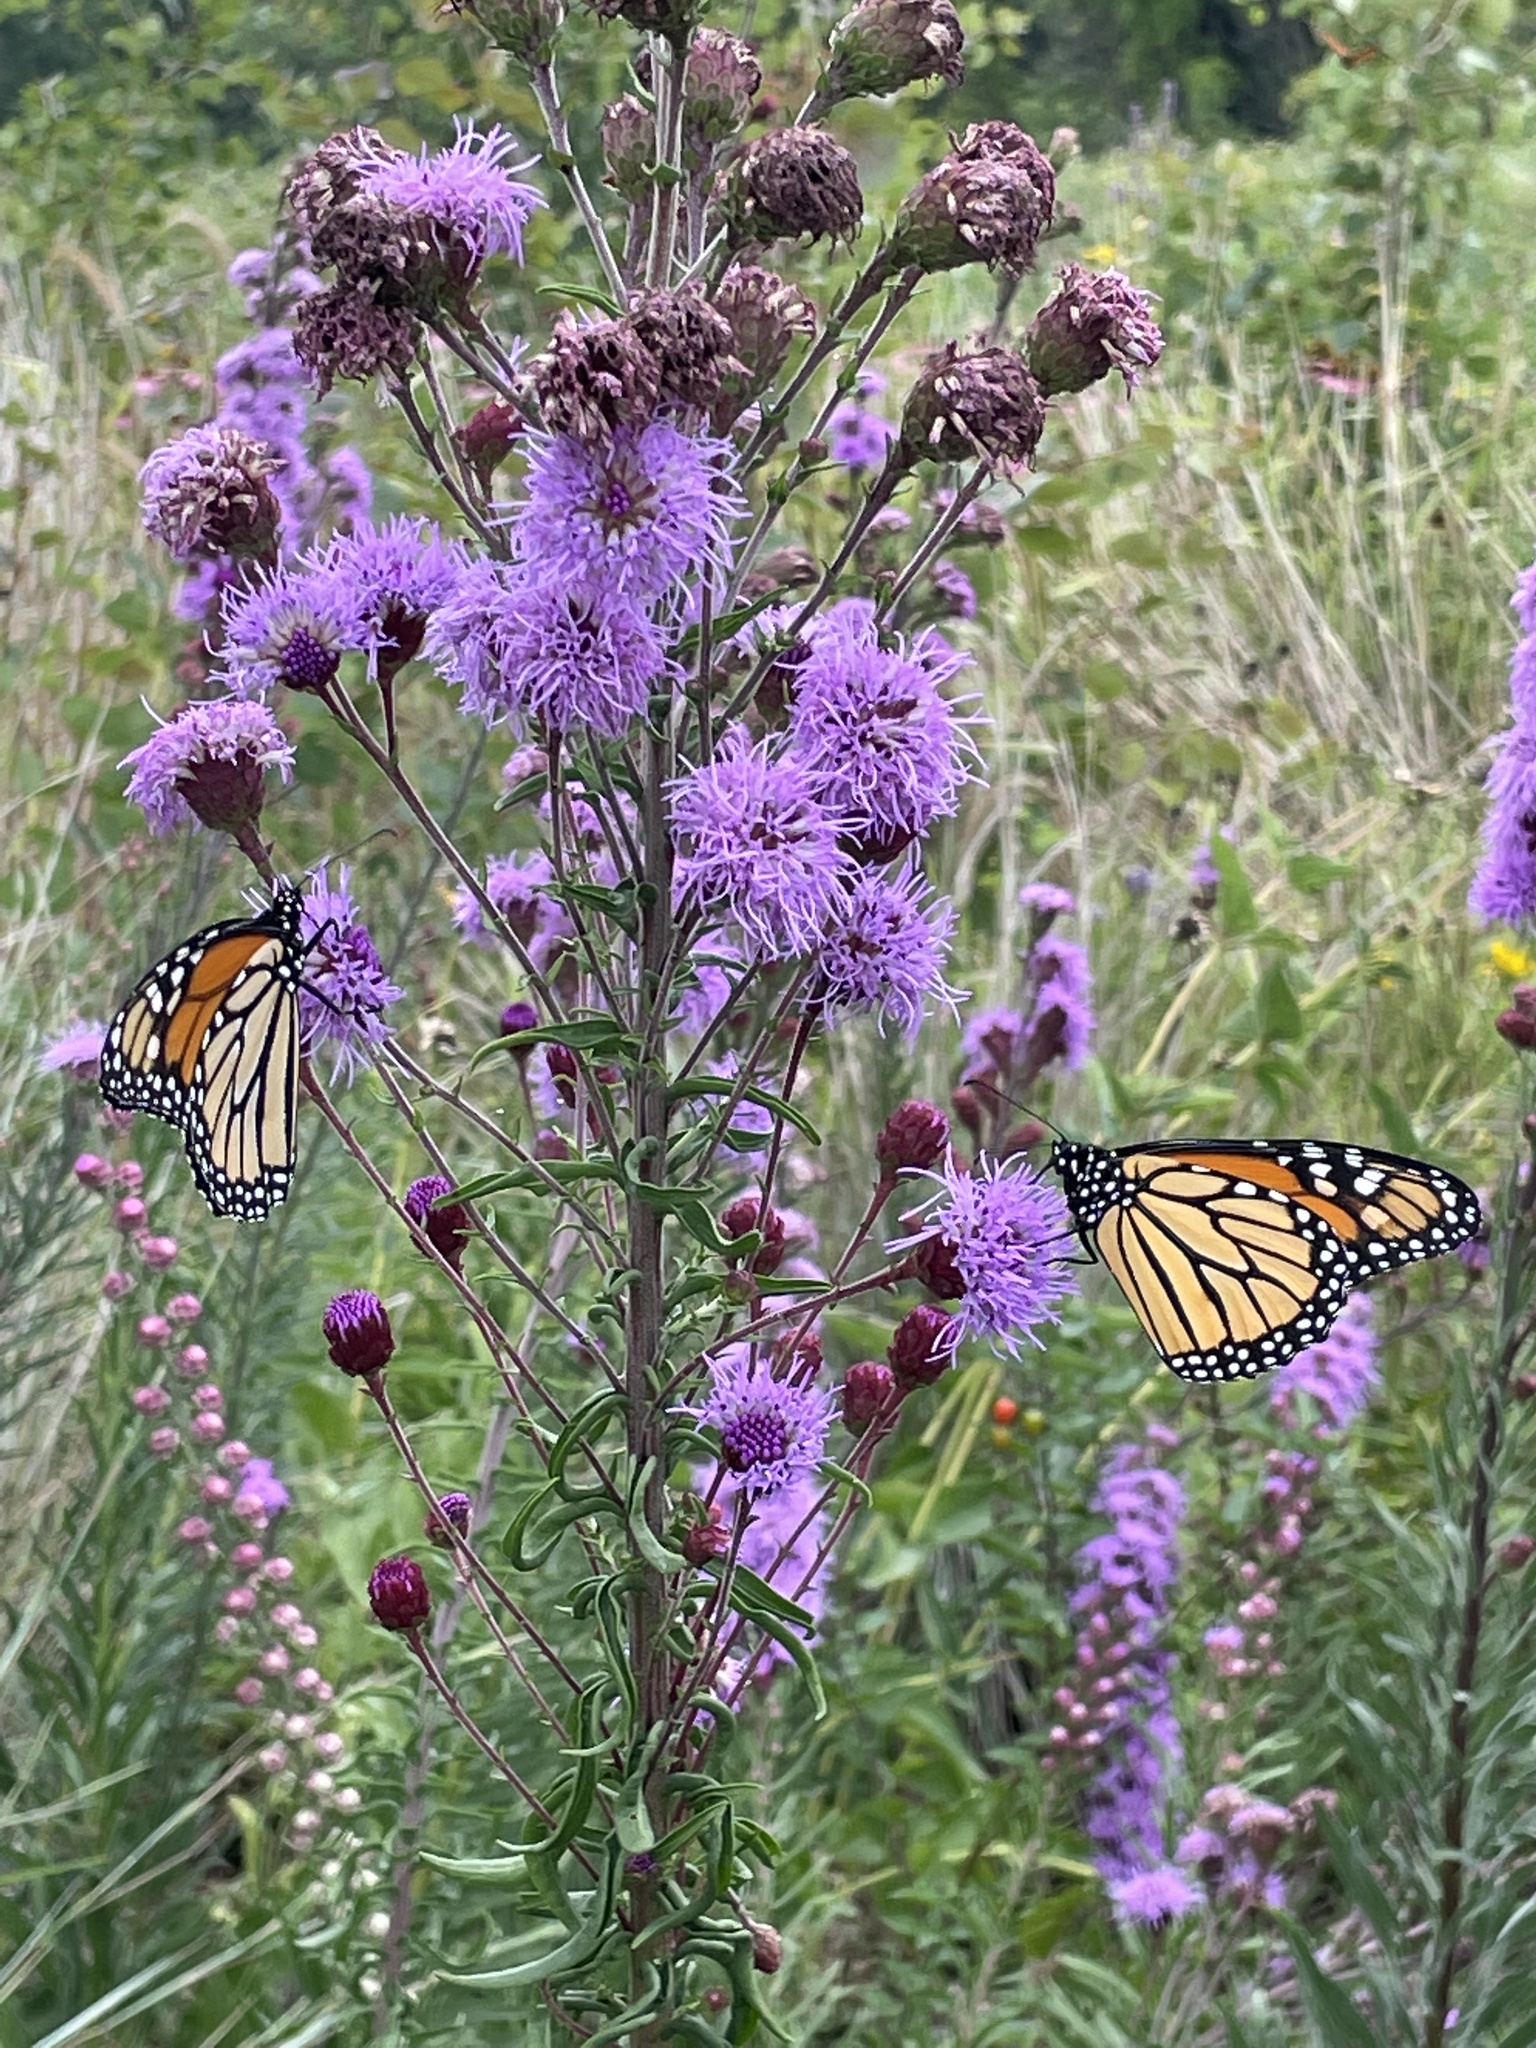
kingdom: Animalia
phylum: Arthropoda
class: Insecta
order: Lepidoptera
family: Nymphalidae
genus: Danaus
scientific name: Danaus plexippus
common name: Monarch
